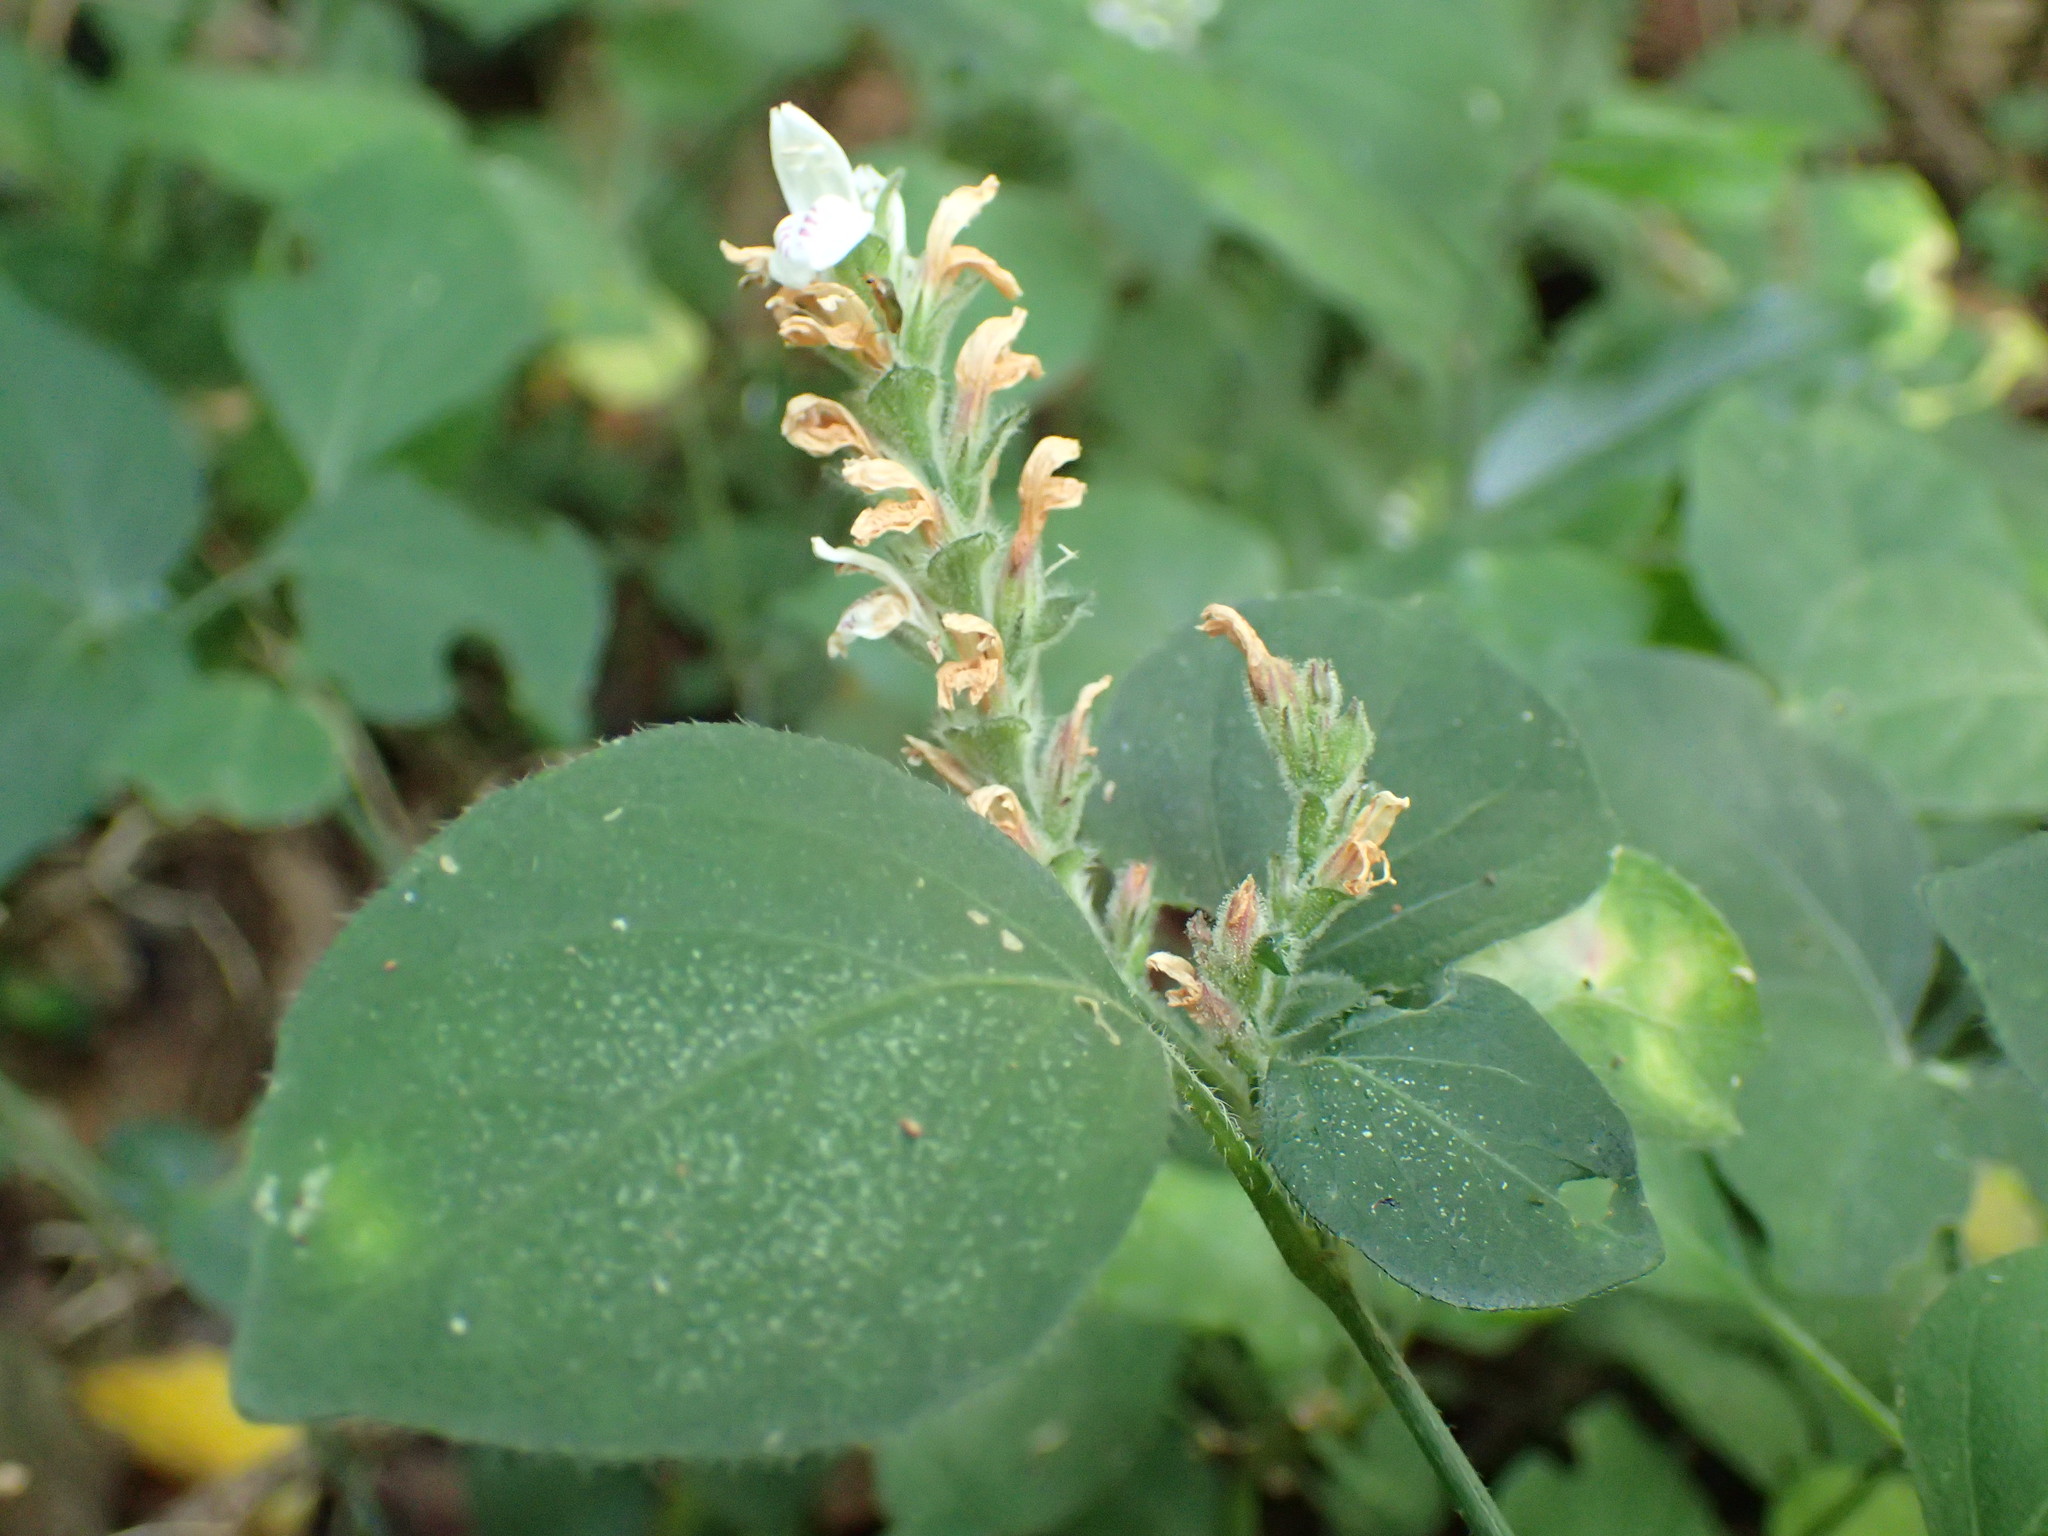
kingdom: Plantae
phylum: Tracheophyta
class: Magnoliopsida
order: Lamiales
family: Acanthaceae
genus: Isoglossa
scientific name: Isoglossa woodii
